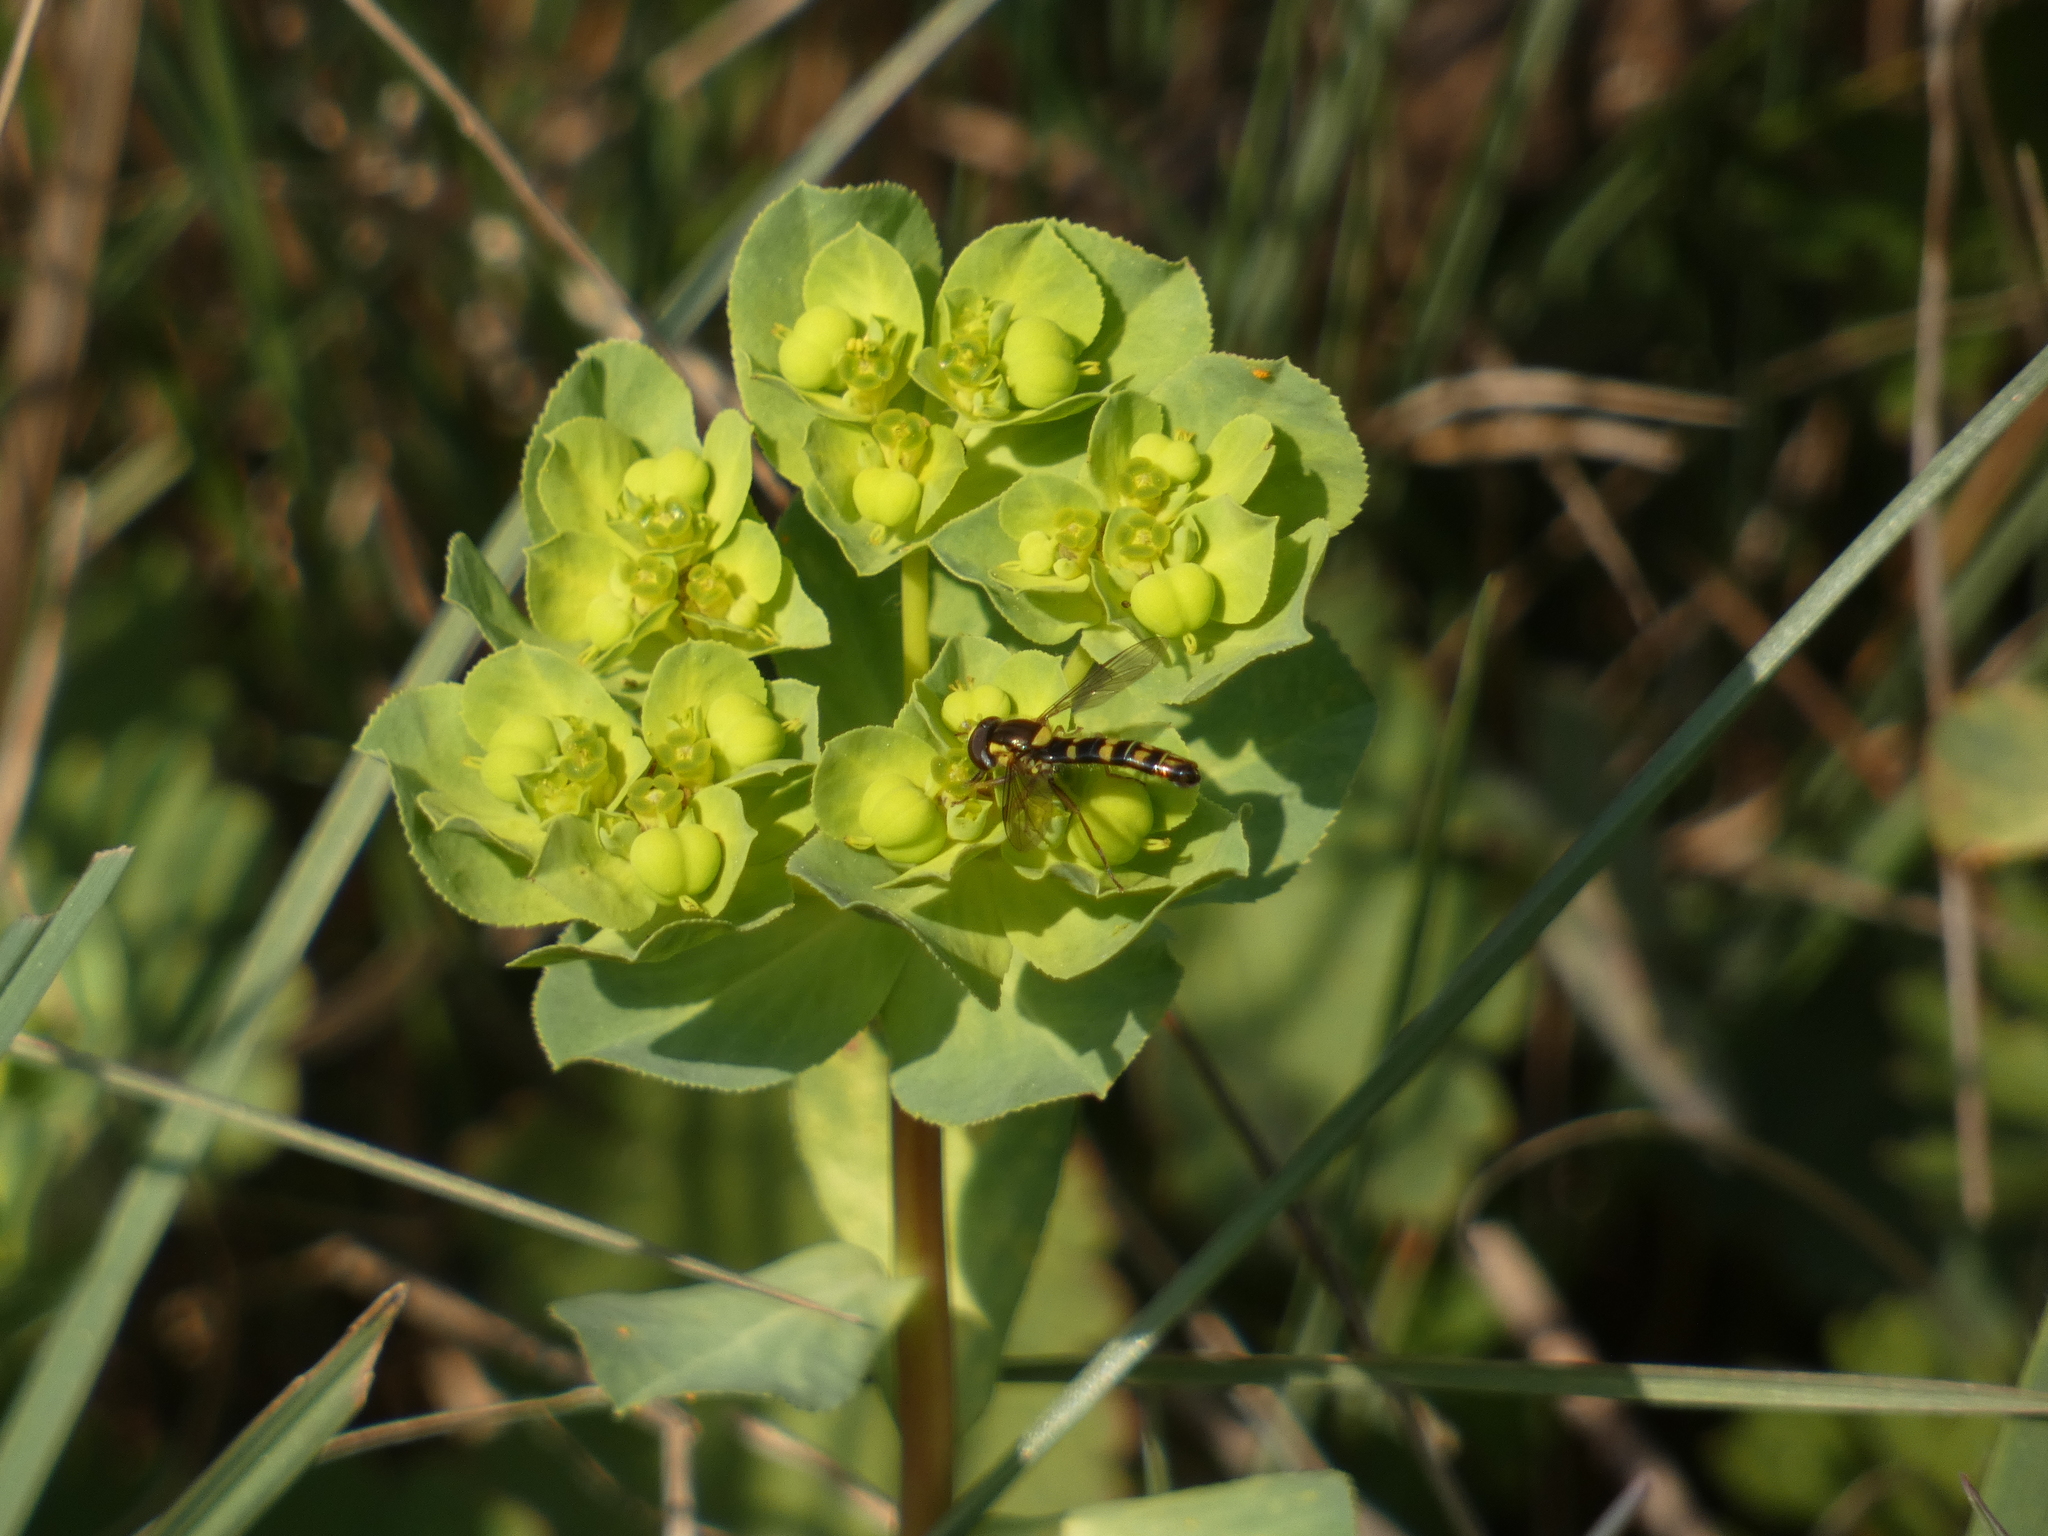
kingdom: Animalia
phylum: Arthropoda
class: Insecta
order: Diptera
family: Syrphidae
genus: Sphaerophoria
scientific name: Sphaerophoria scripta
